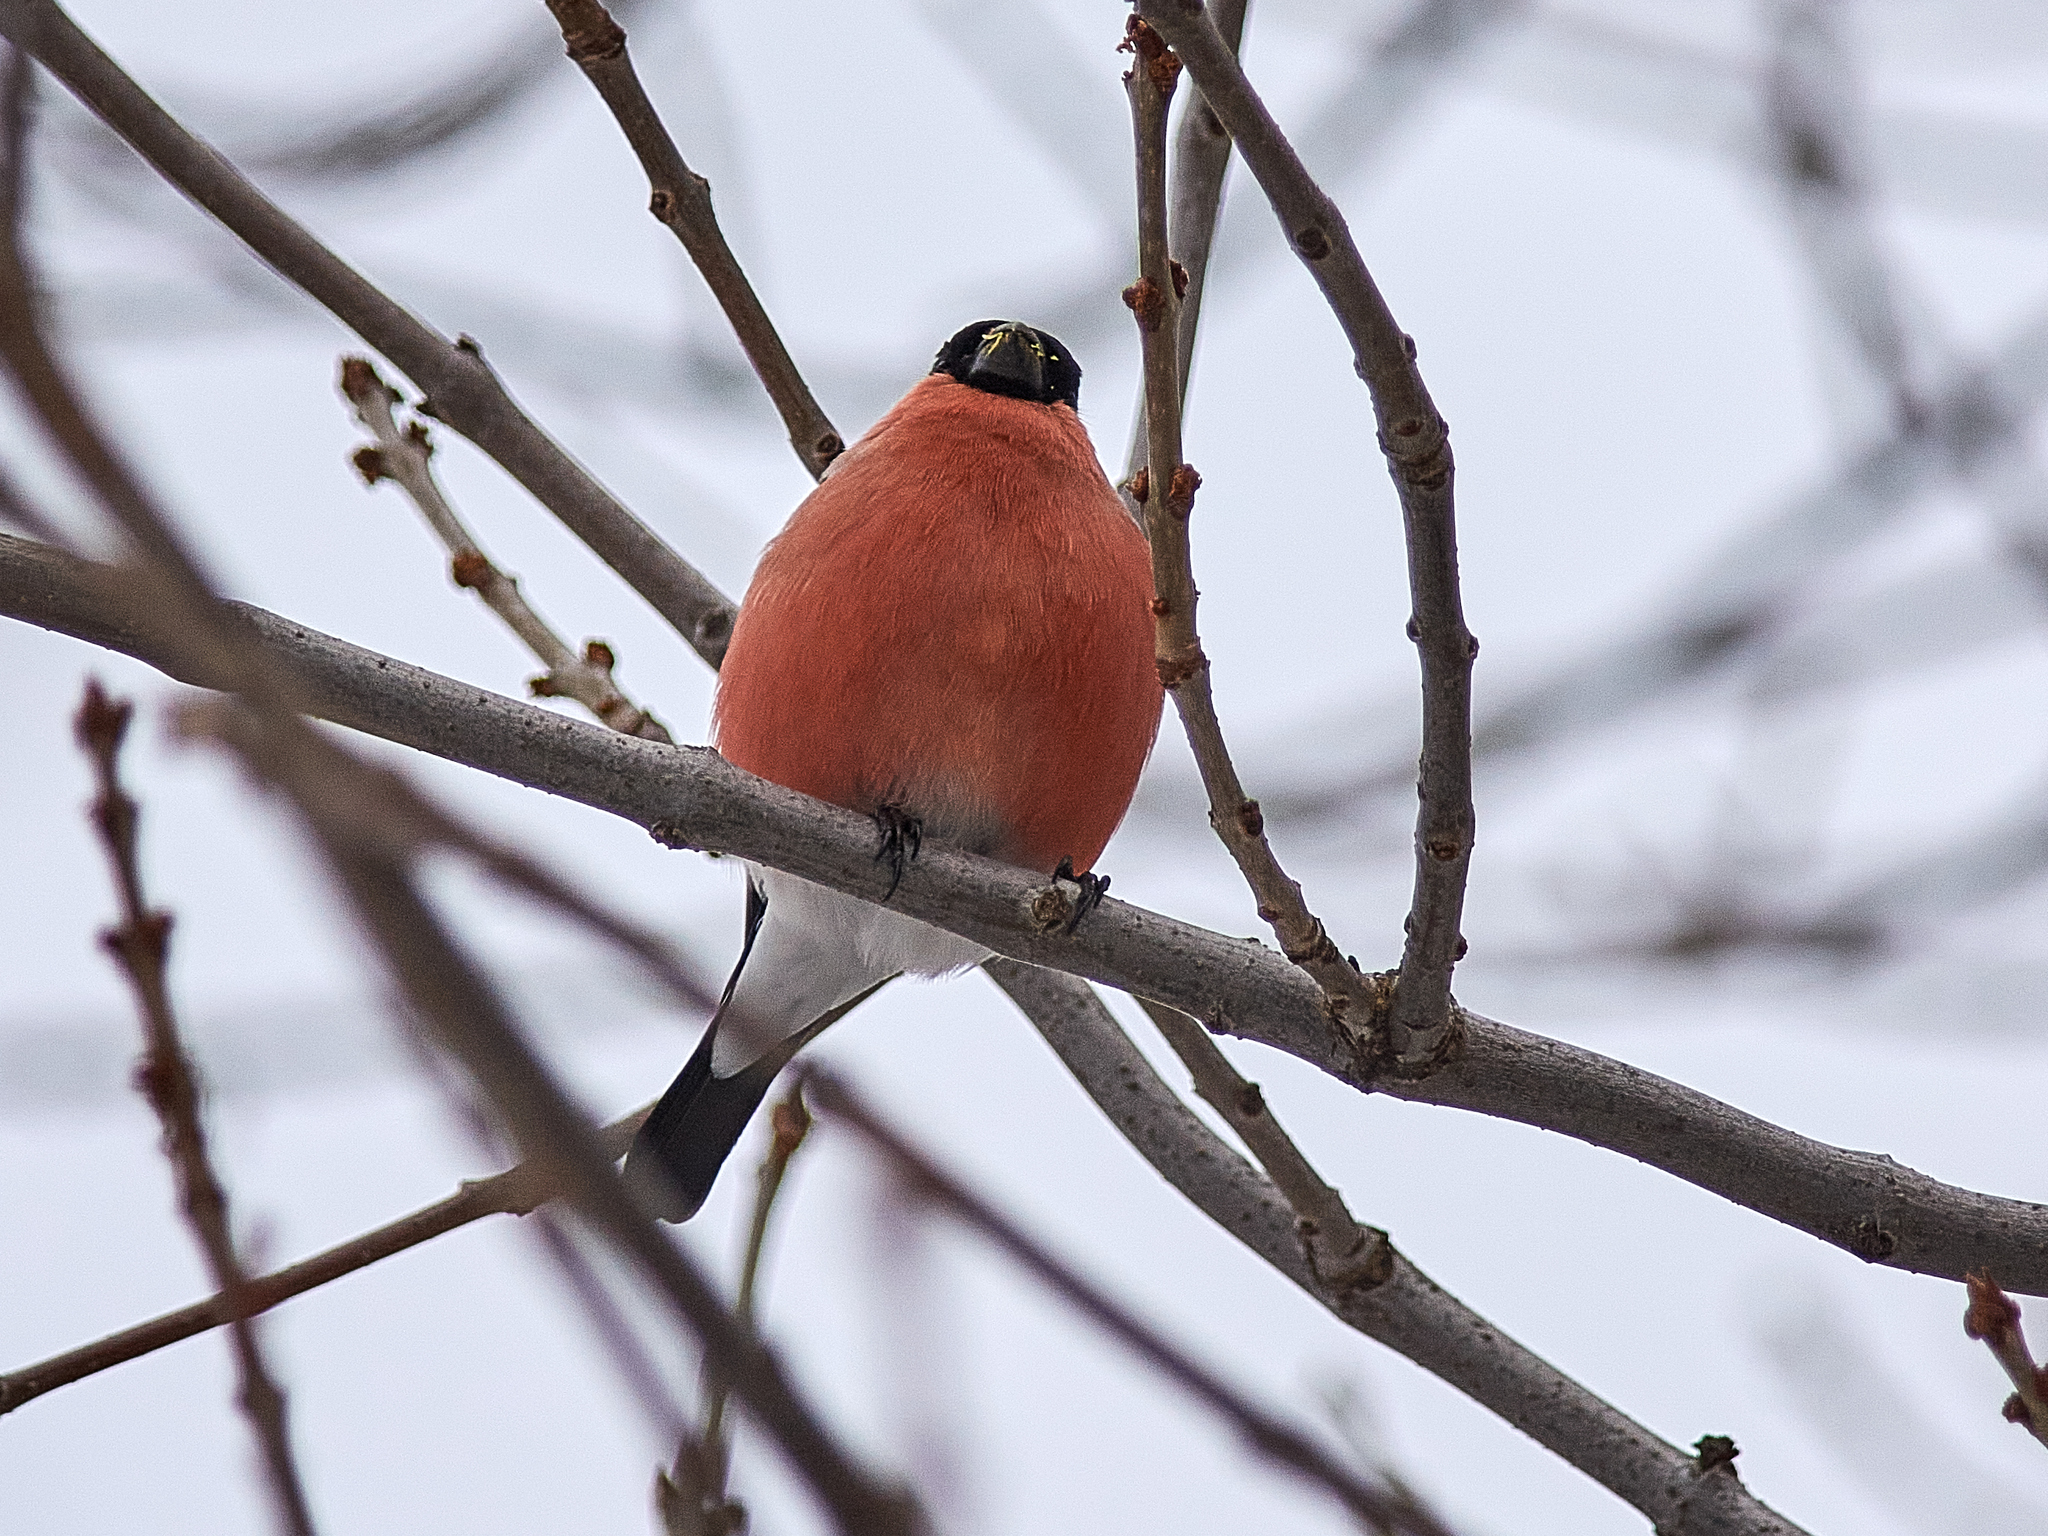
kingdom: Animalia
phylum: Chordata
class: Aves
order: Passeriformes
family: Fringillidae
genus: Pyrrhula
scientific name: Pyrrhula pyrrhula
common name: Eurasian bullfinch
